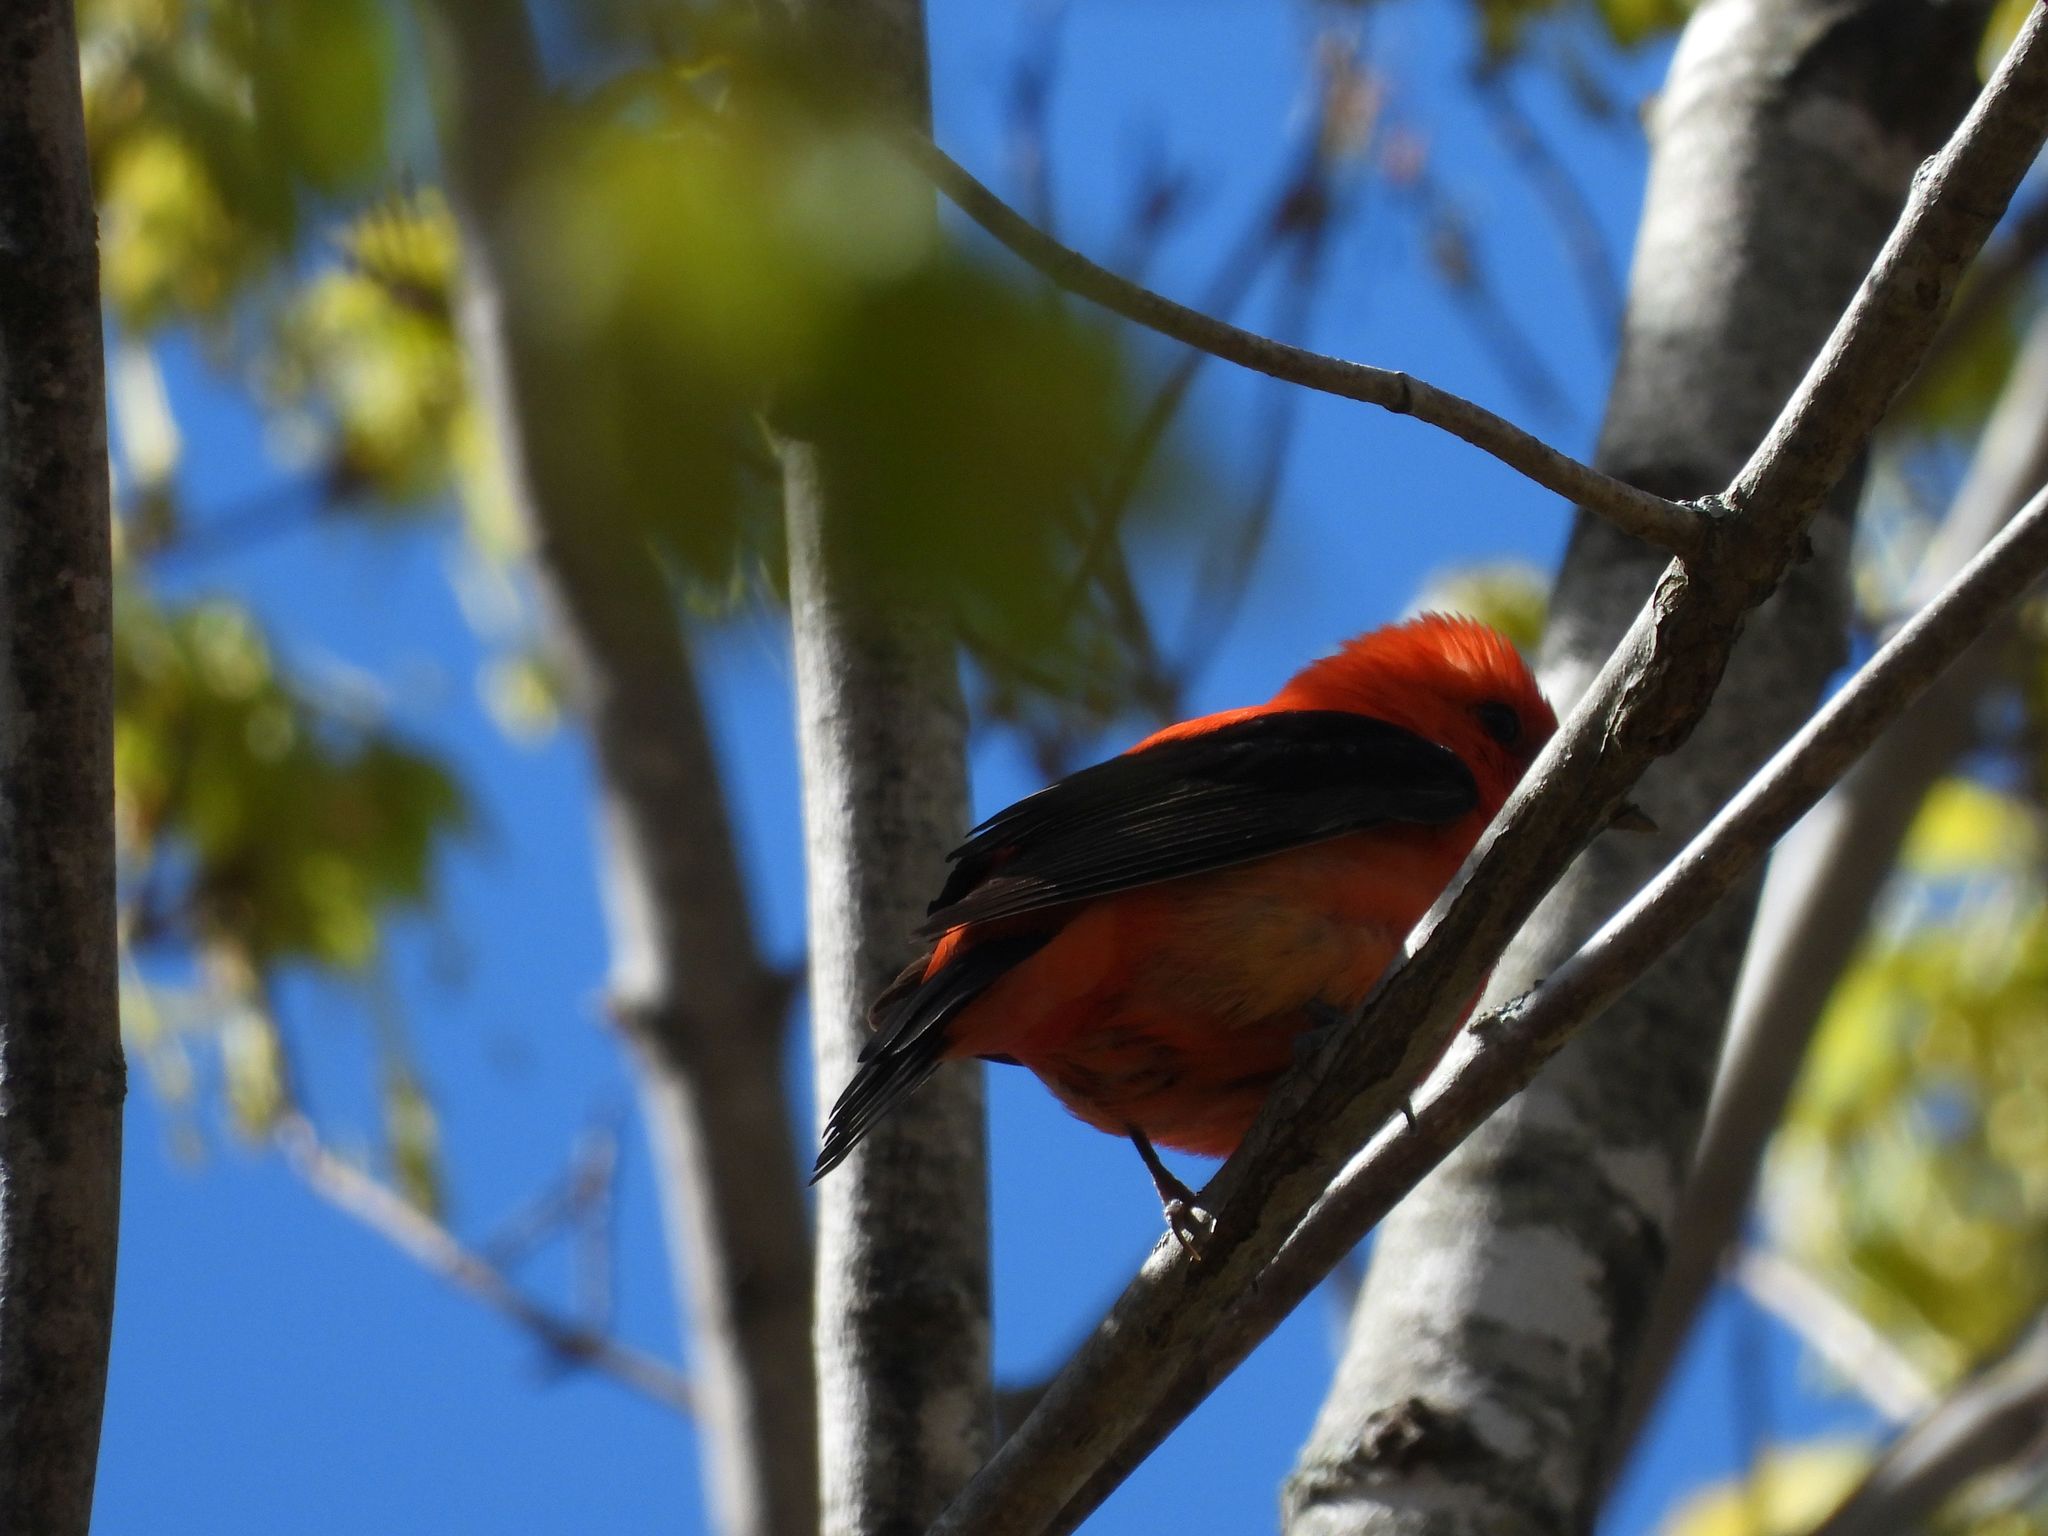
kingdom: Animalia
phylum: Chordata
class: Aves
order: Passeriformes
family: Cardinalidae
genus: Piranga
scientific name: Piranga olivacea
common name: Scarlet tanager
